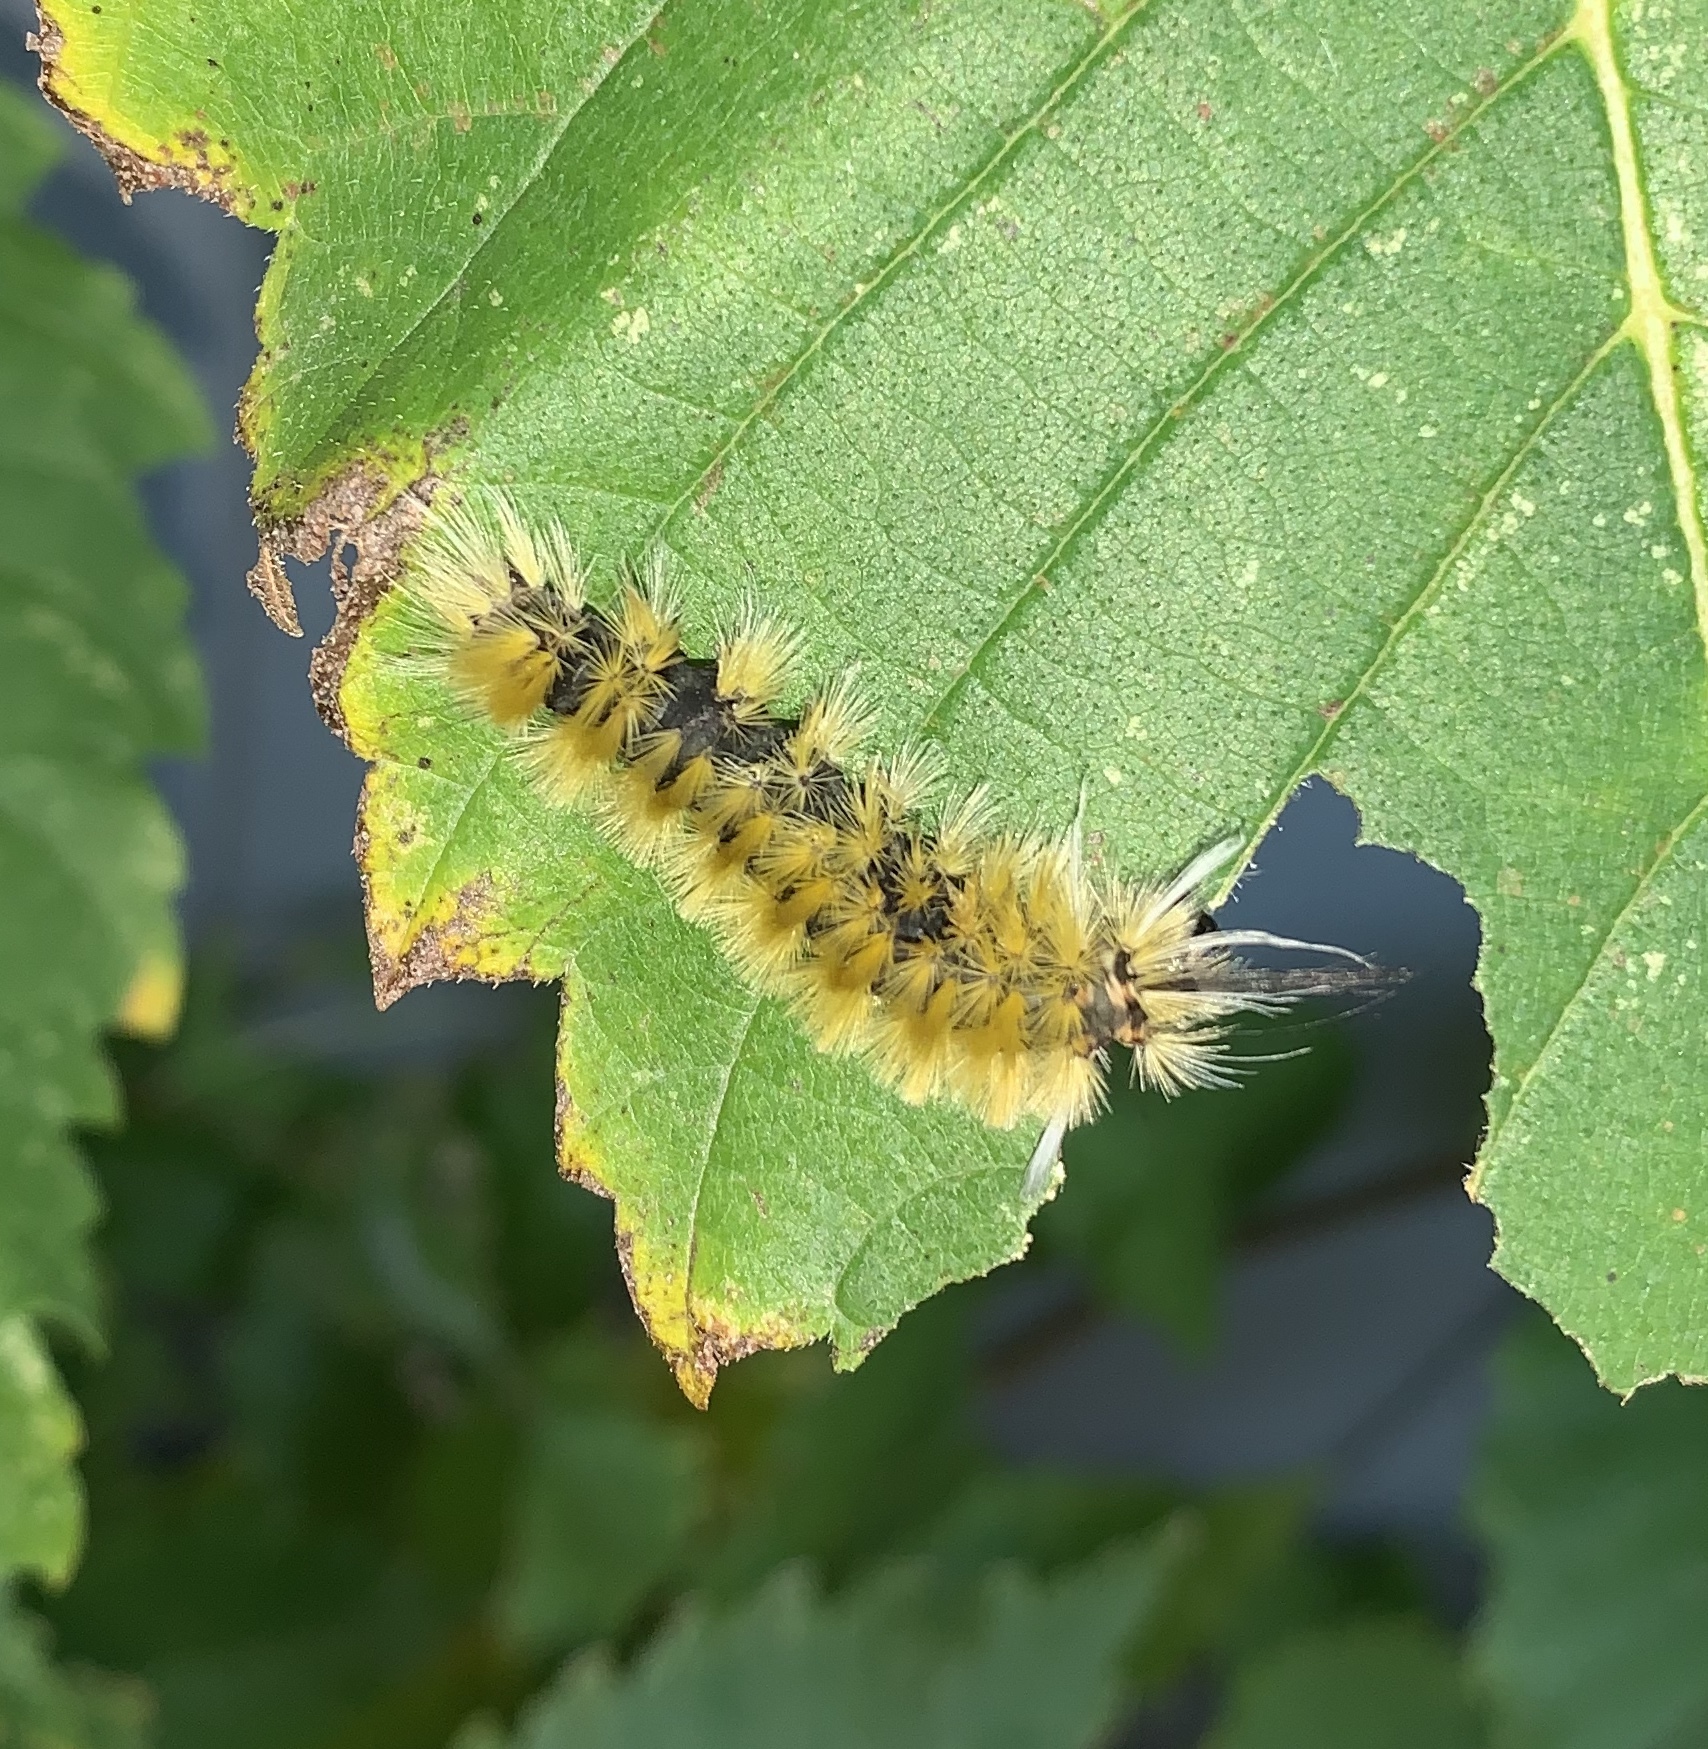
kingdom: Animalia
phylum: Arthropoda
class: Insecta
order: Lepidoptera
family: Erebidae
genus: Halysidota
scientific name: Halysidota tessellaris
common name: Banded tussock moth
